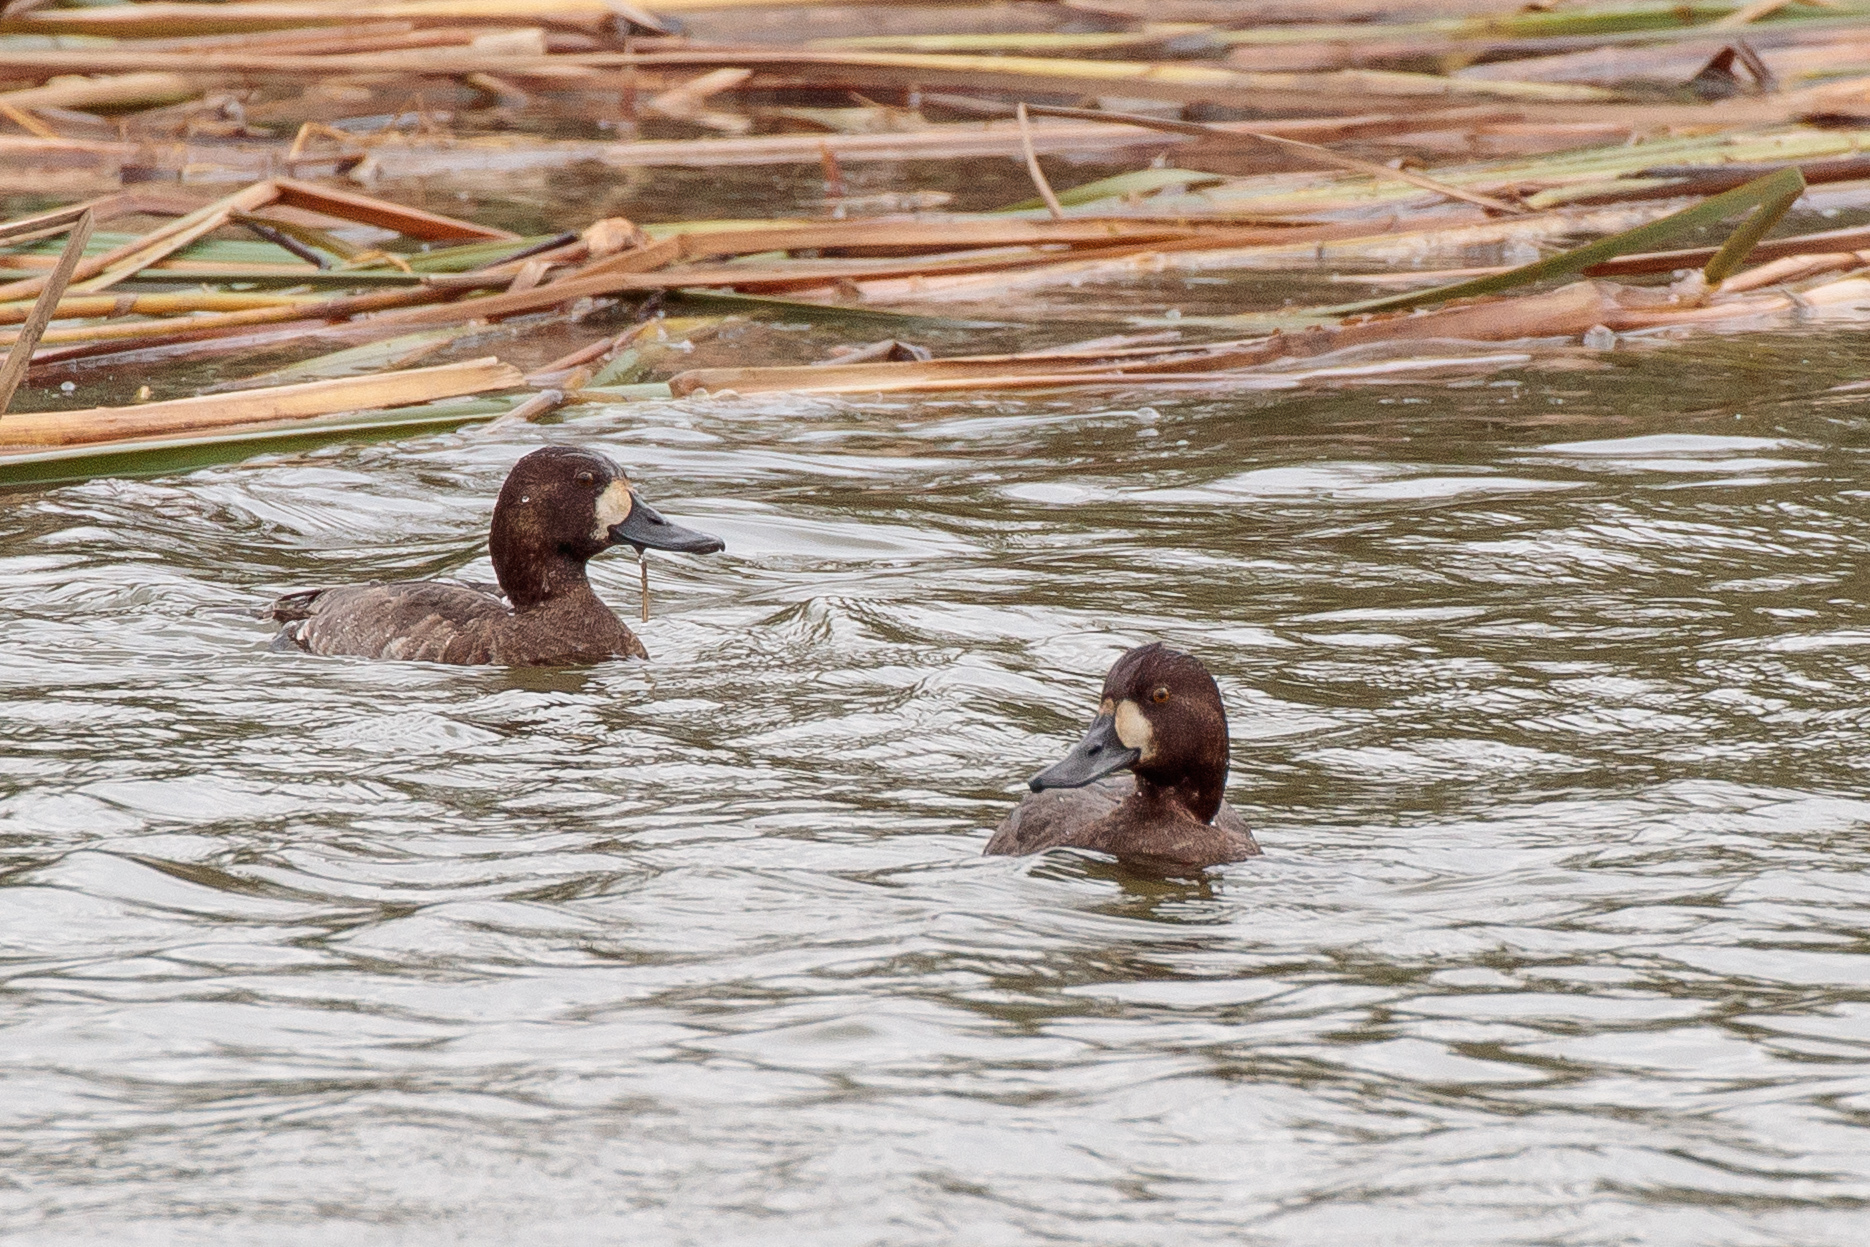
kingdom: Animalia
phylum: Chordata
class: Aves
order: Anseriformes
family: Anatidae
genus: Aythya
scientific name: Aythya marila
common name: Greater scaup
